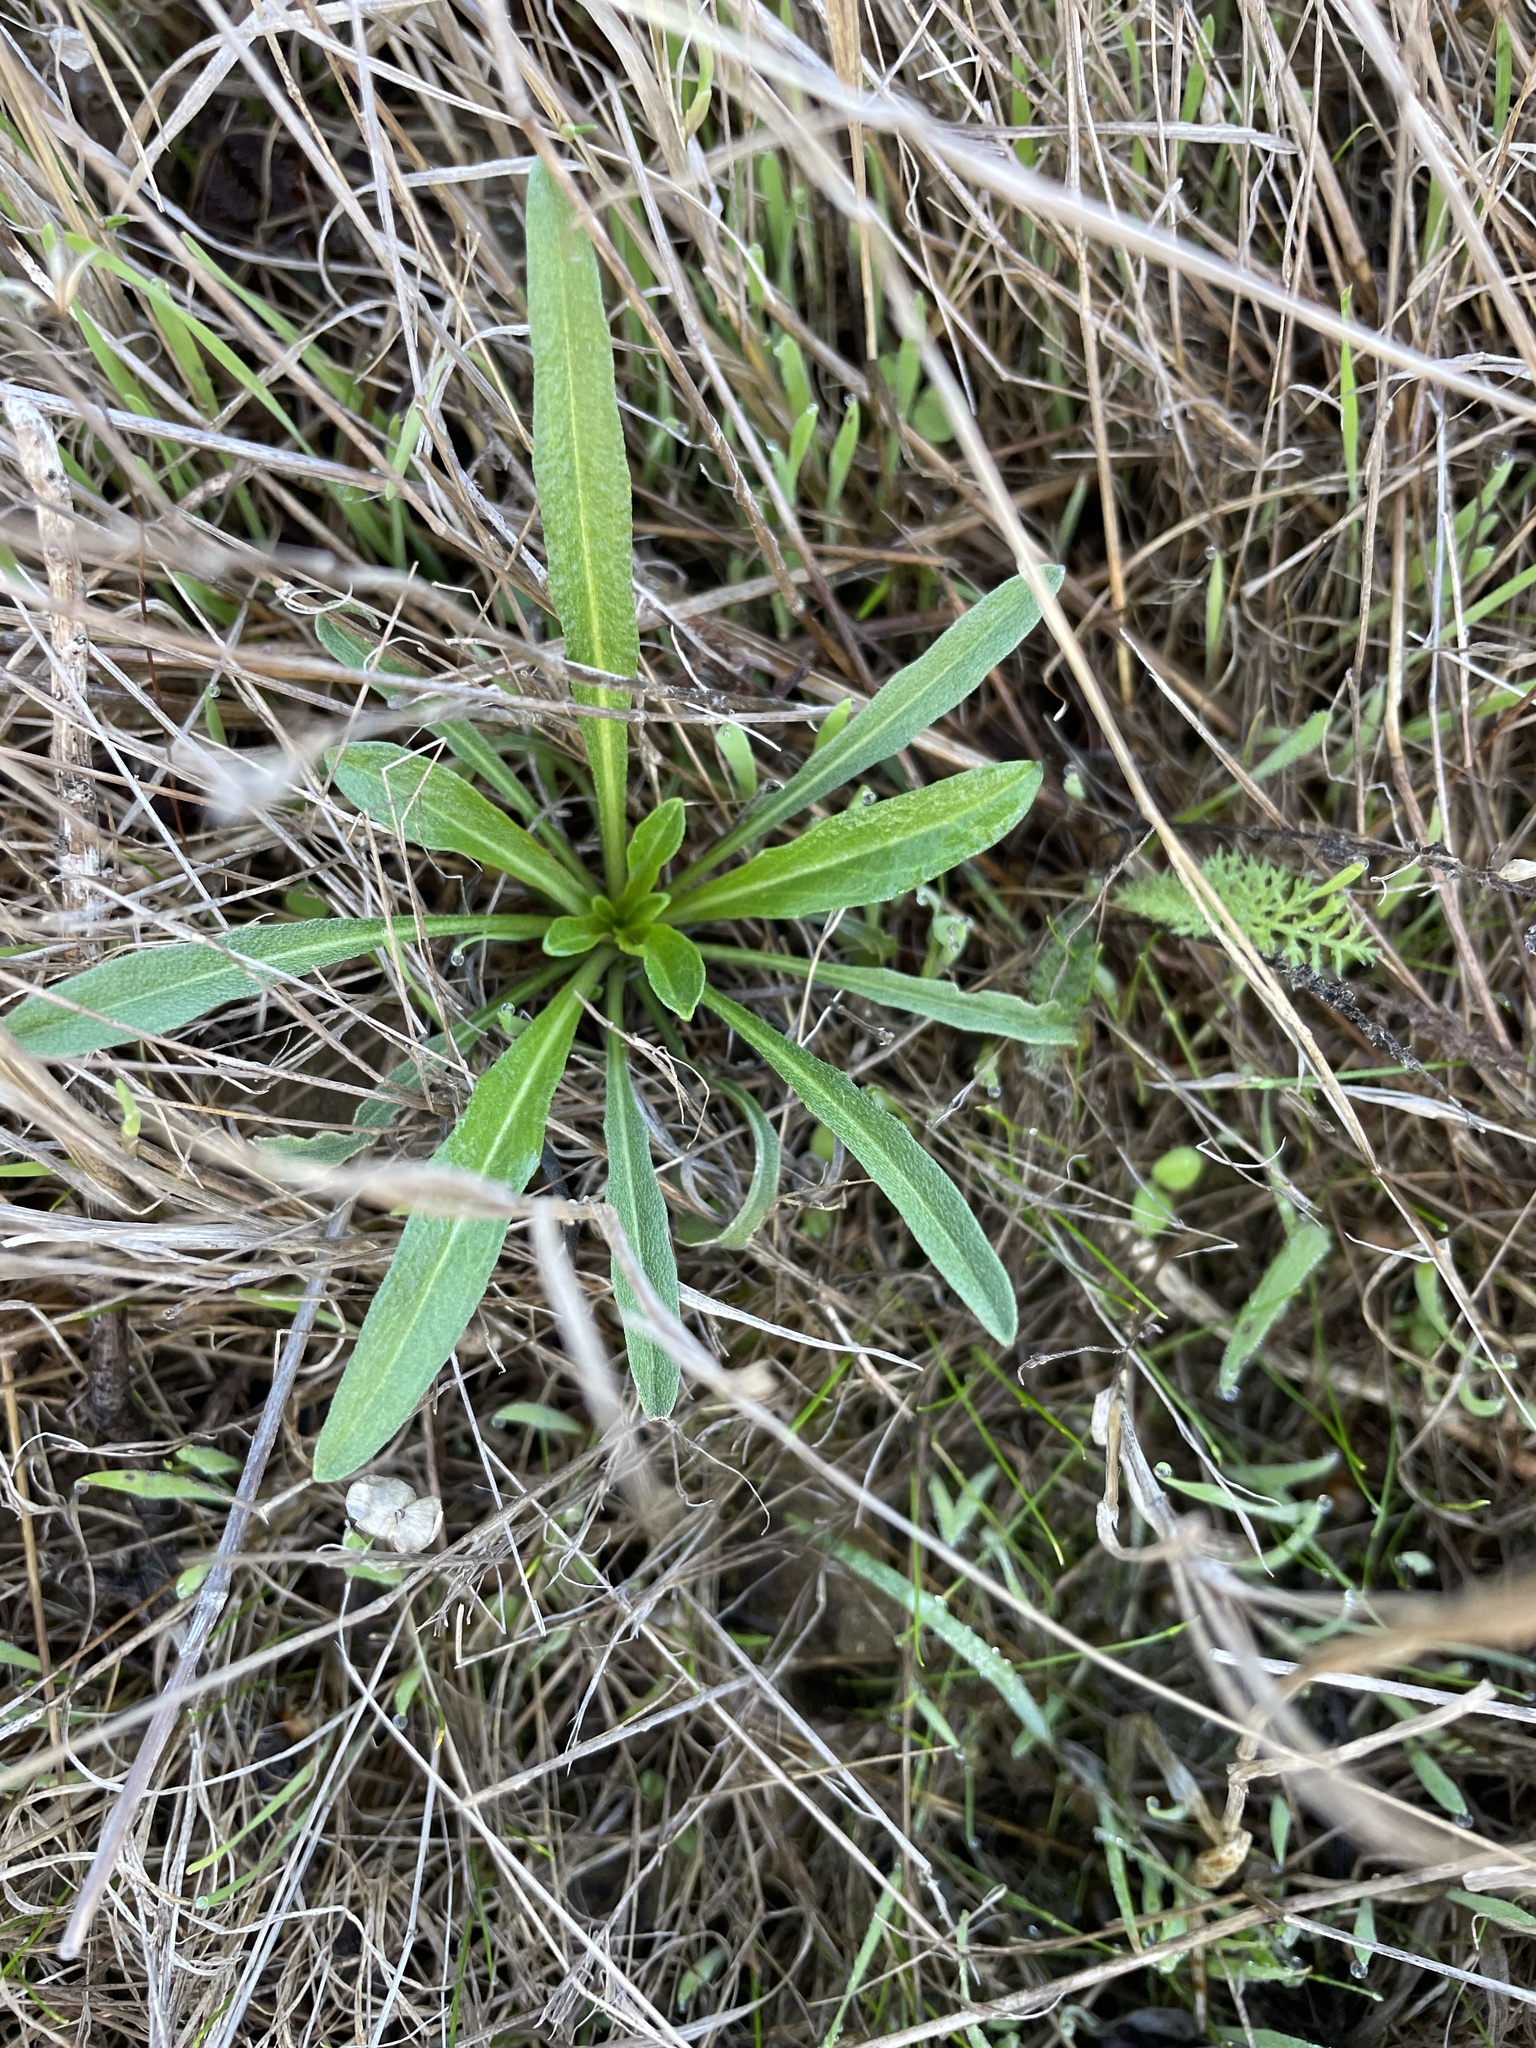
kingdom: Plantae
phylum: Tracheophyta
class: Magnoliopsida
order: Brassicales
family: Brassicaceae
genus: Erysimum
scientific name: Erysimum franciscanum
